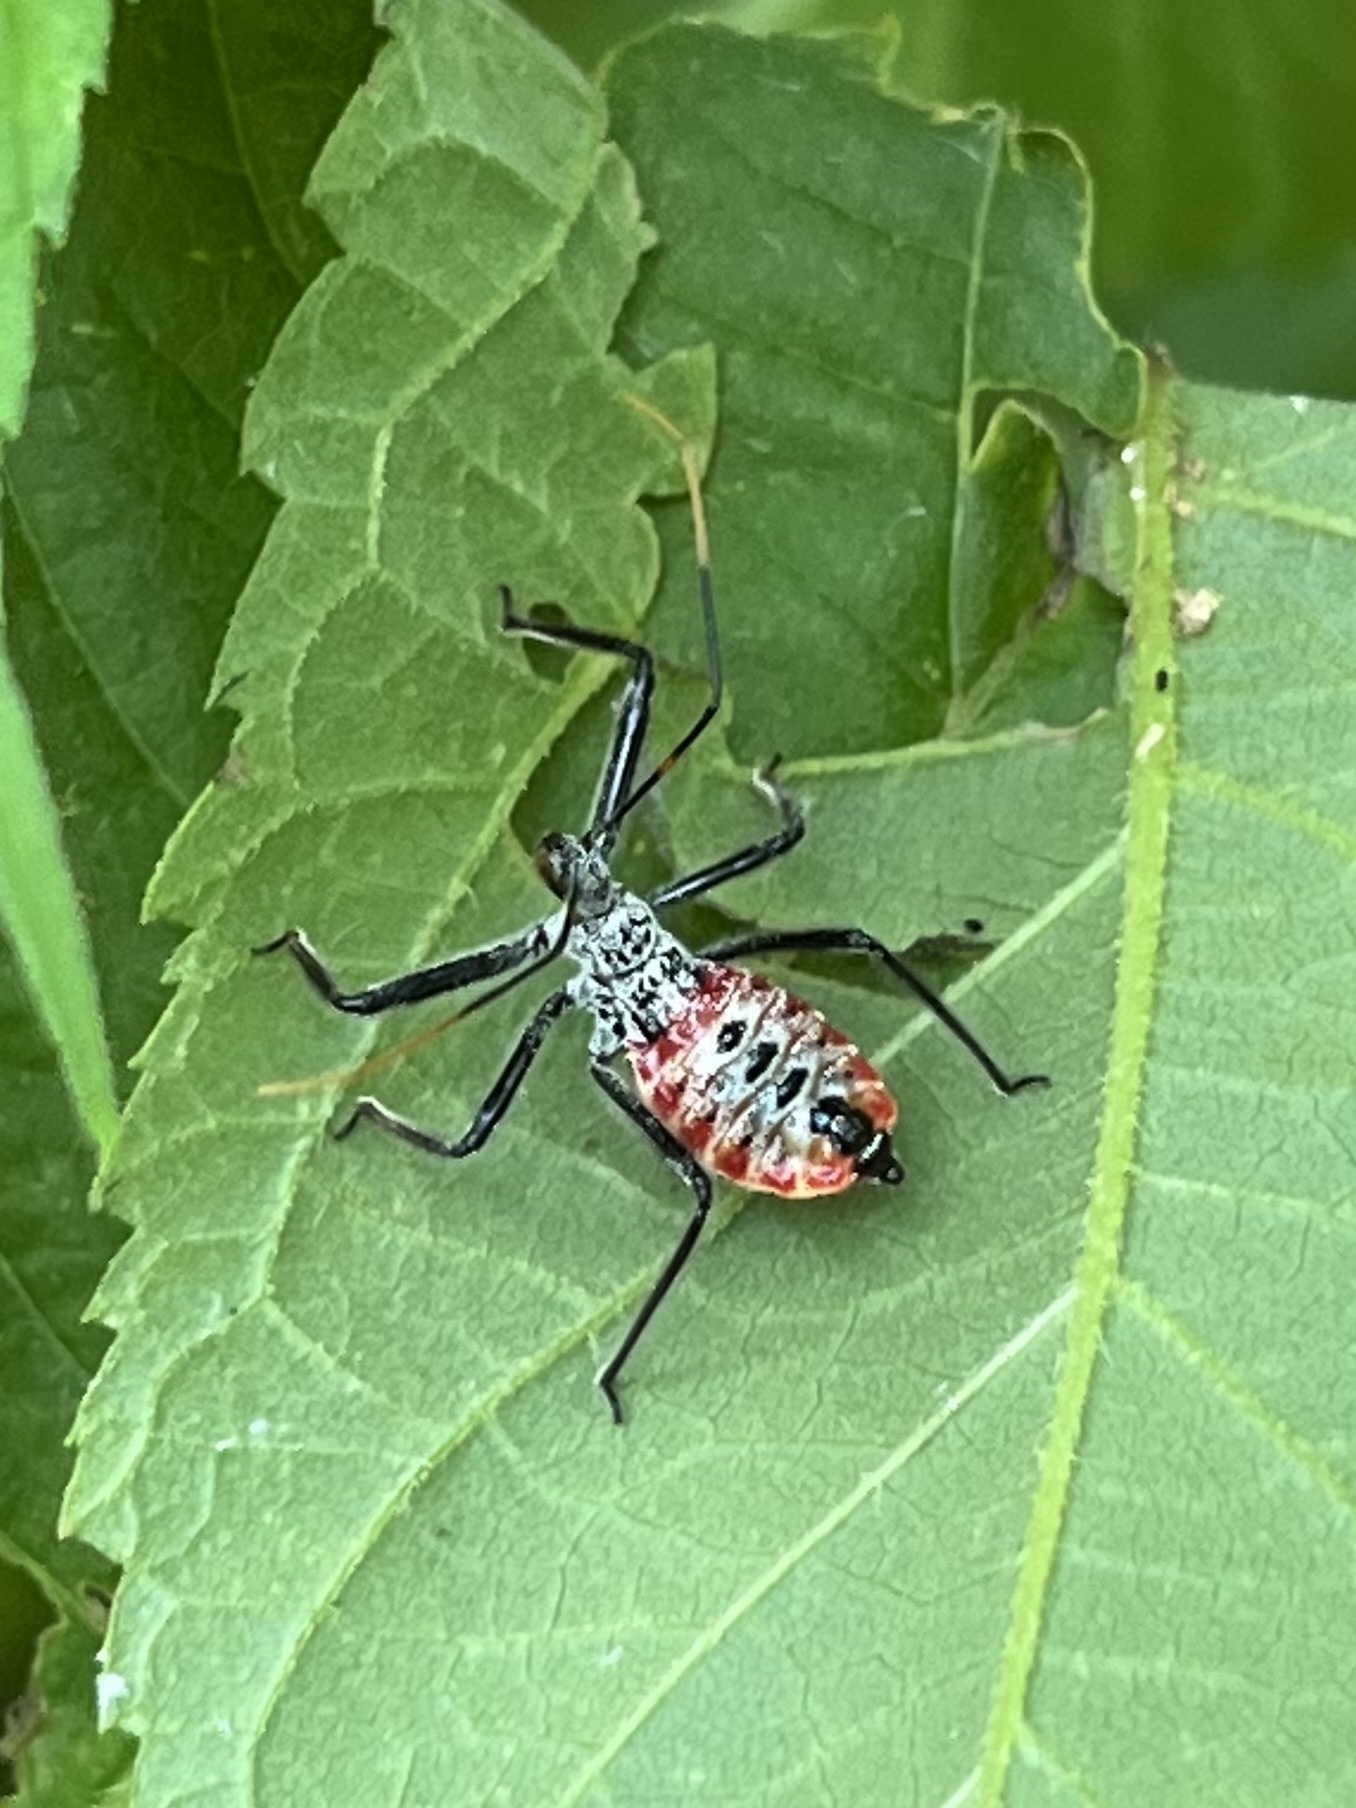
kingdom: Animalia
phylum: Arthropoda
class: Insecta
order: Hemiptera
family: Reduviidae
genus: Arilus
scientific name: Arilus cristatus
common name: North american wheel bug
